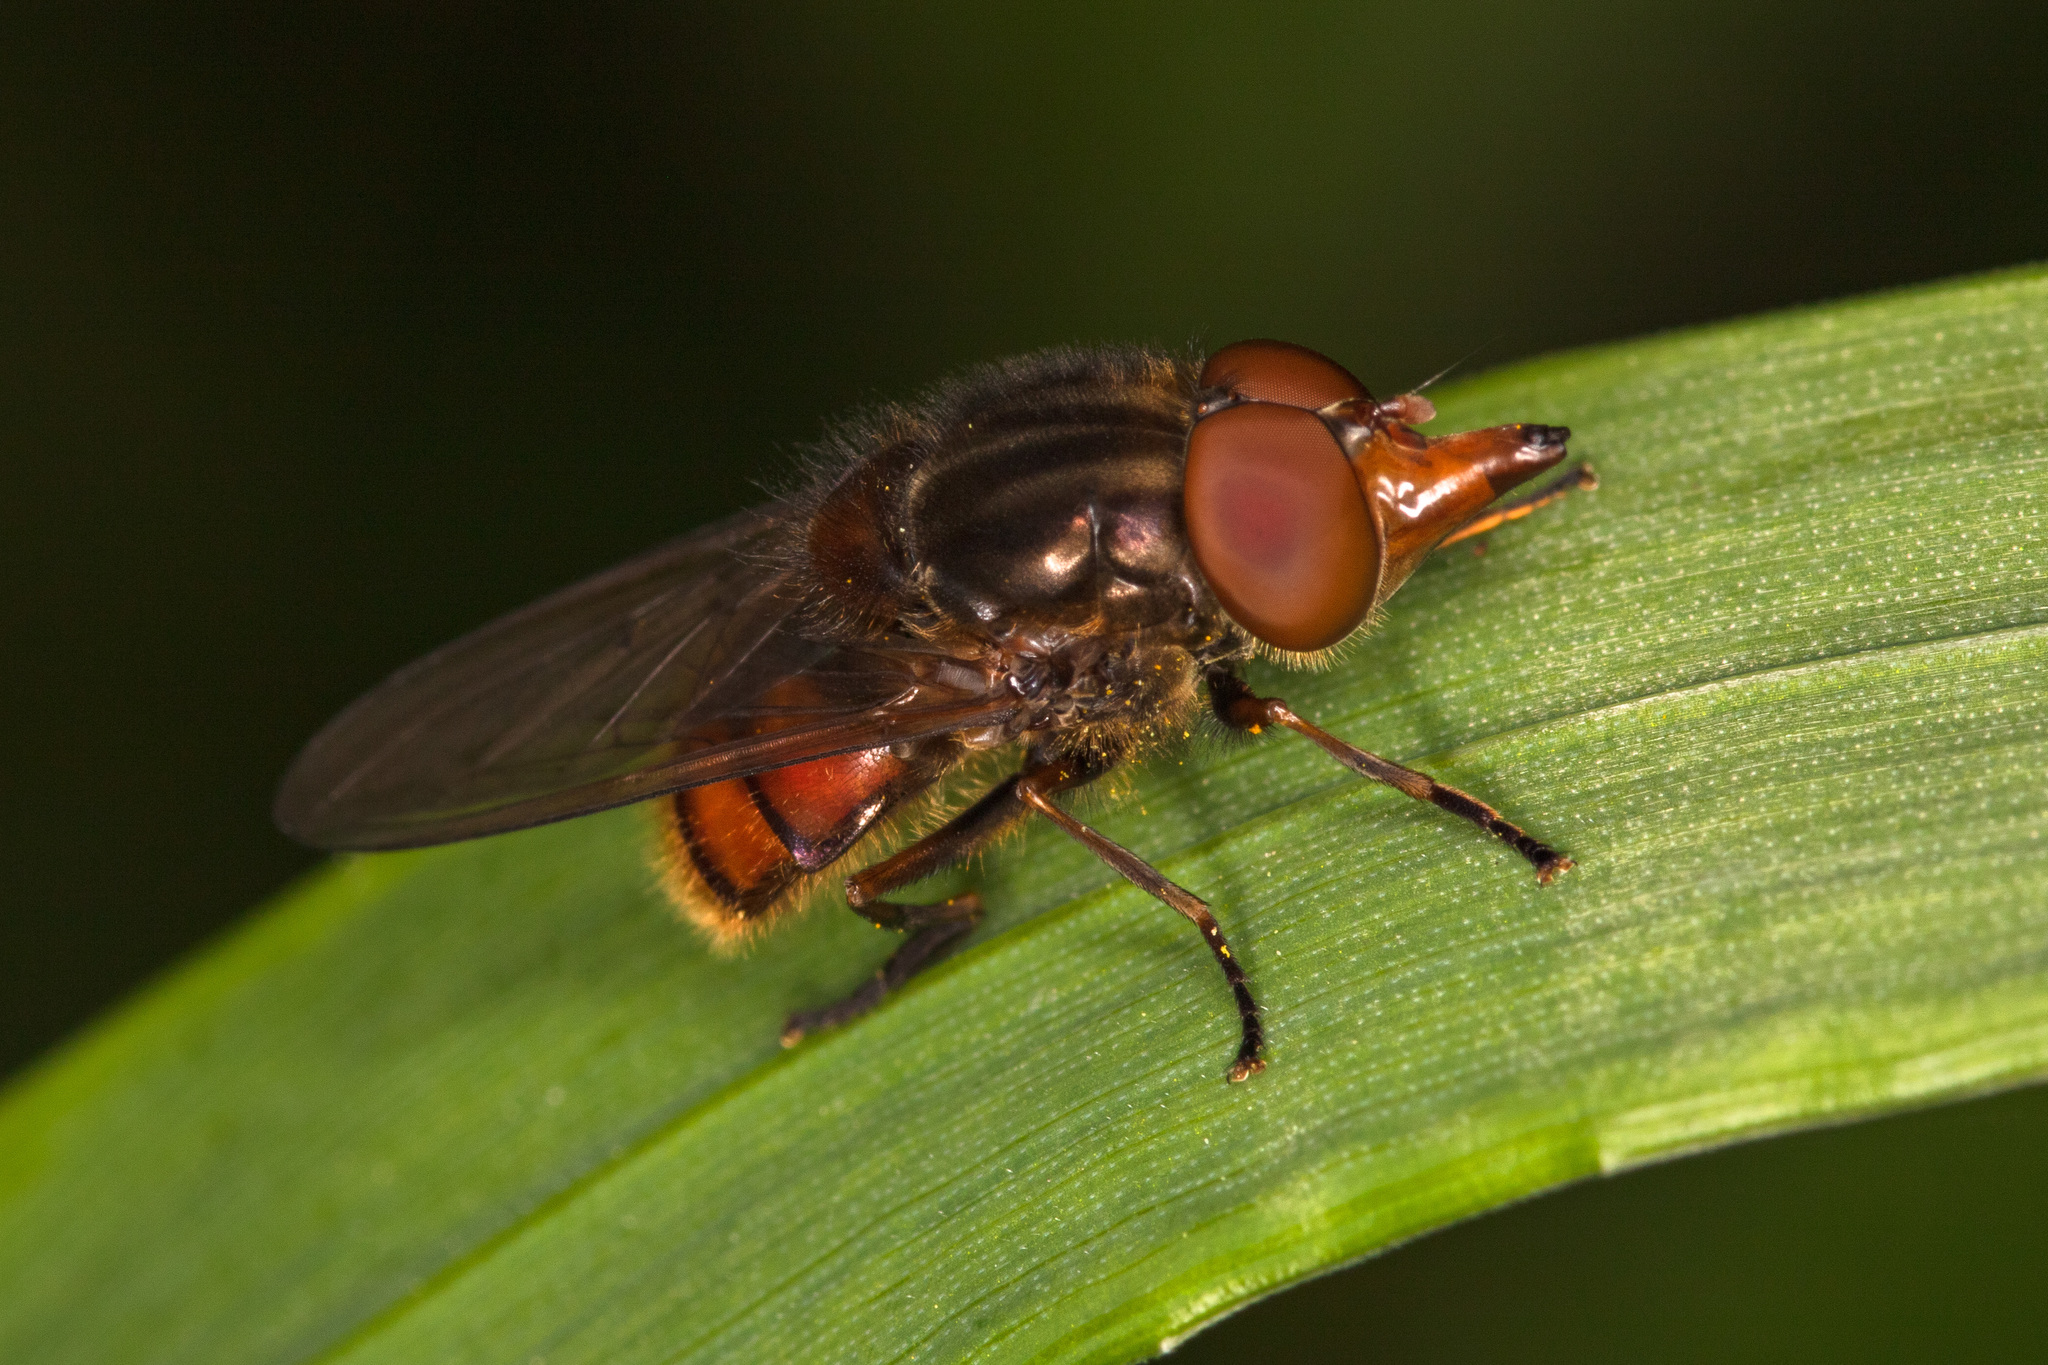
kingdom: Animalia
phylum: Arthropoda
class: Insecta
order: Diptera
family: Syrphidae
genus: Rhingia
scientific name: Rhingia campestris
